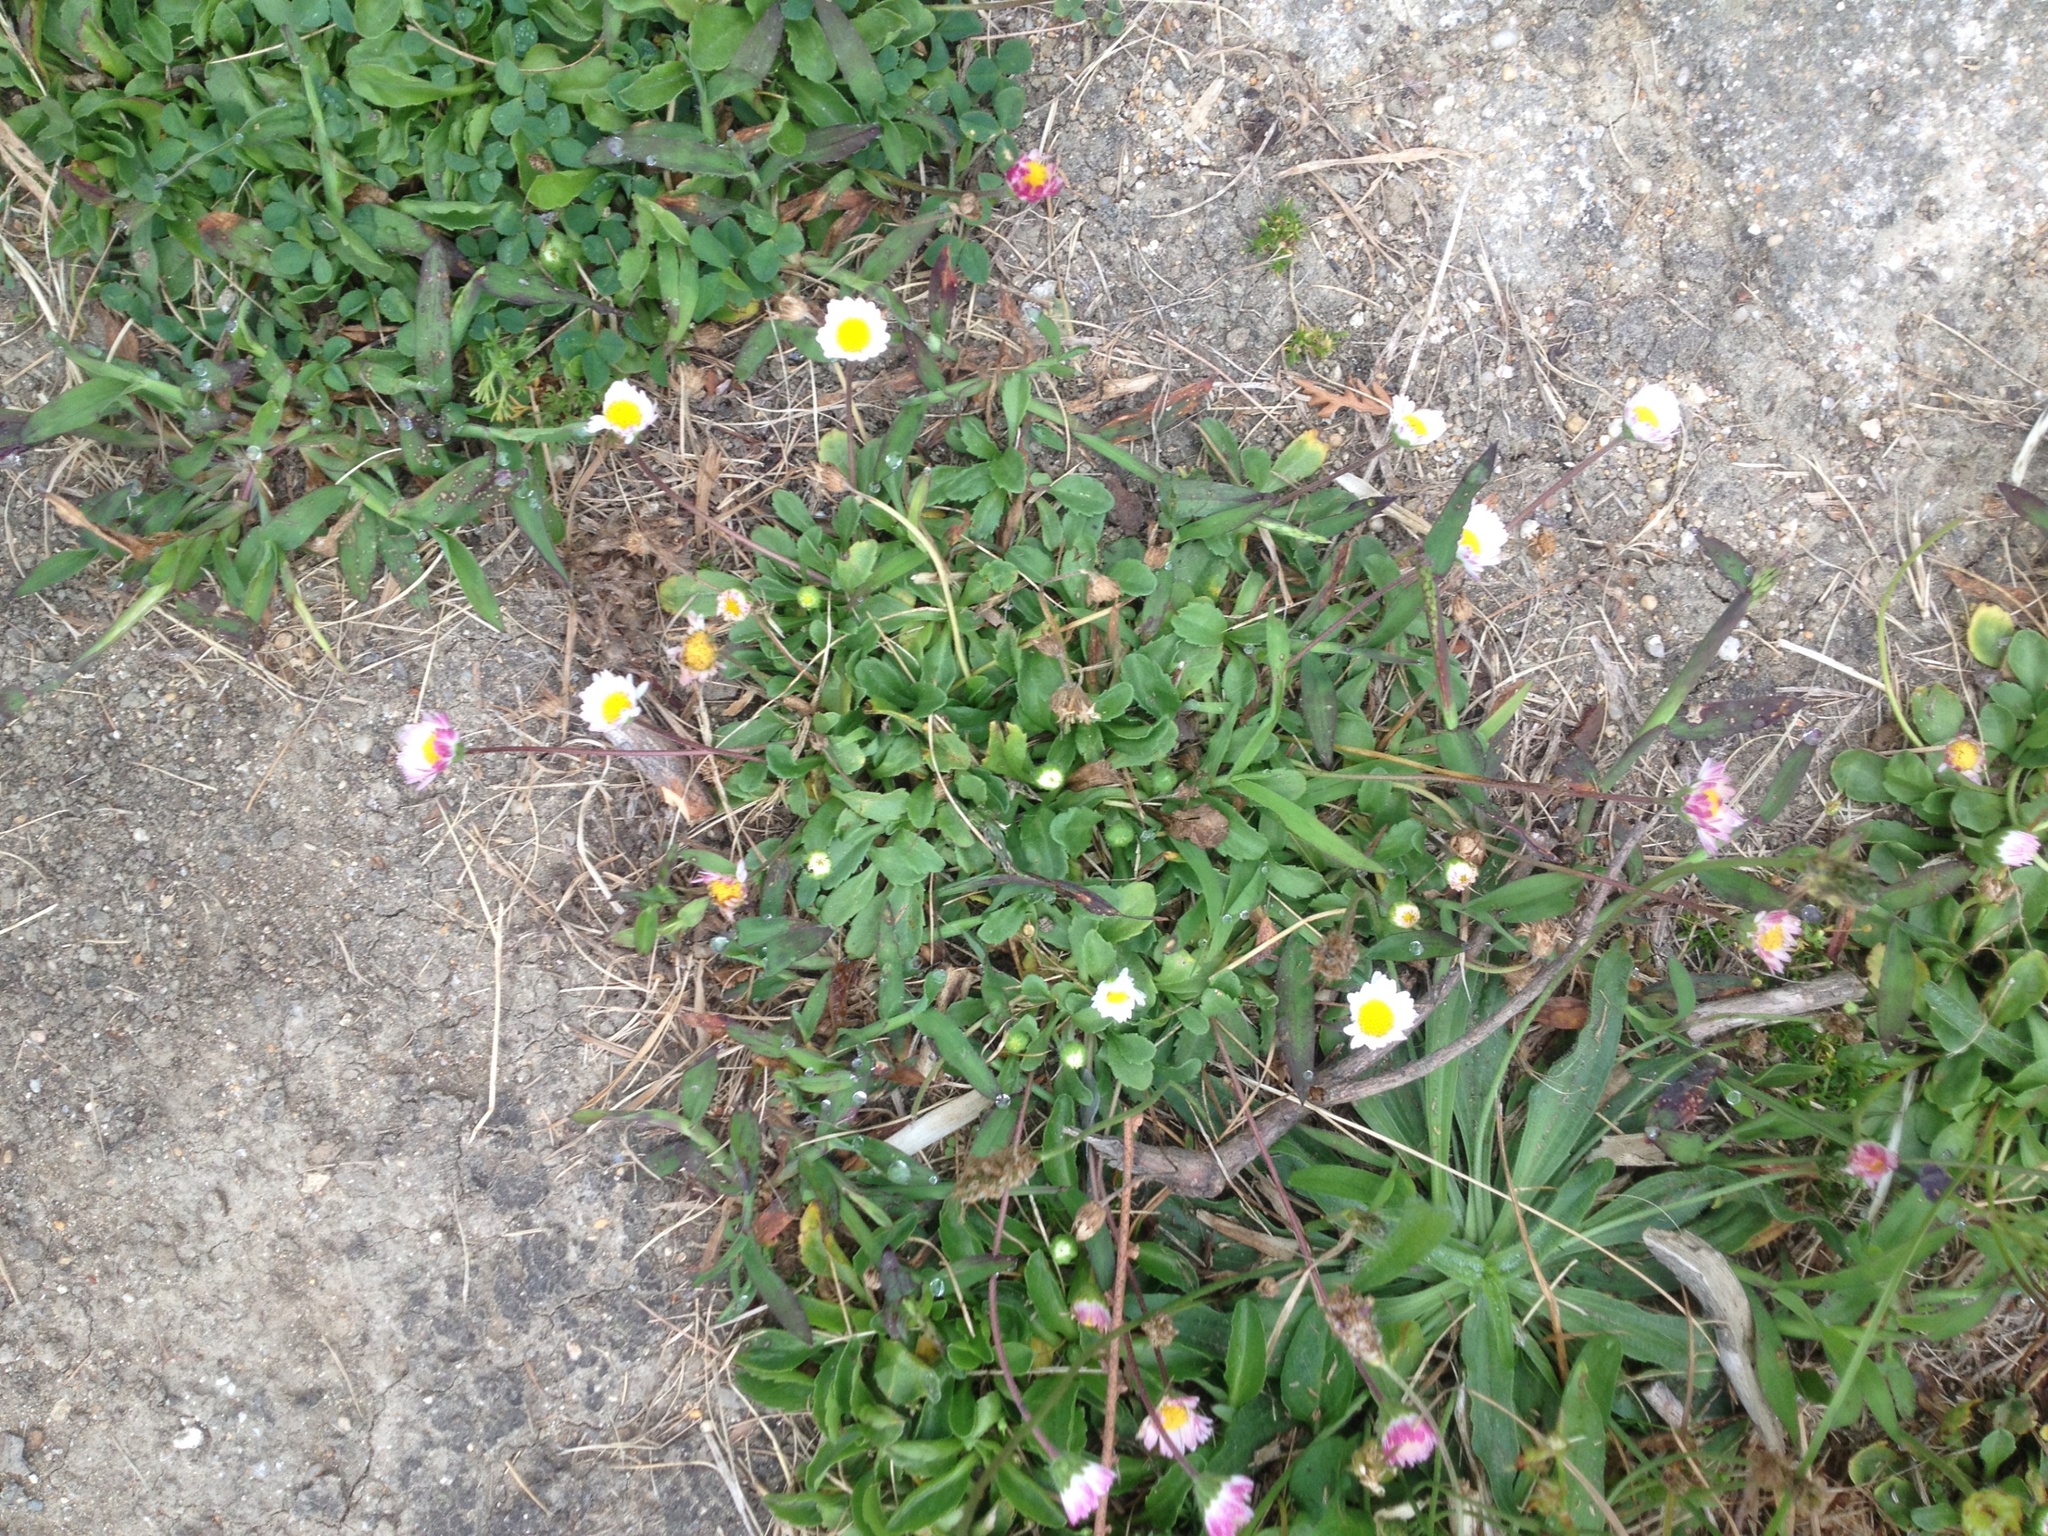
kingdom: Plantae
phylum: Tracheophyta
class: Magnoliopsida
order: Asterales
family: Asteraceae
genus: Bellis
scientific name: Bellis perennis
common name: Lawndaisy
